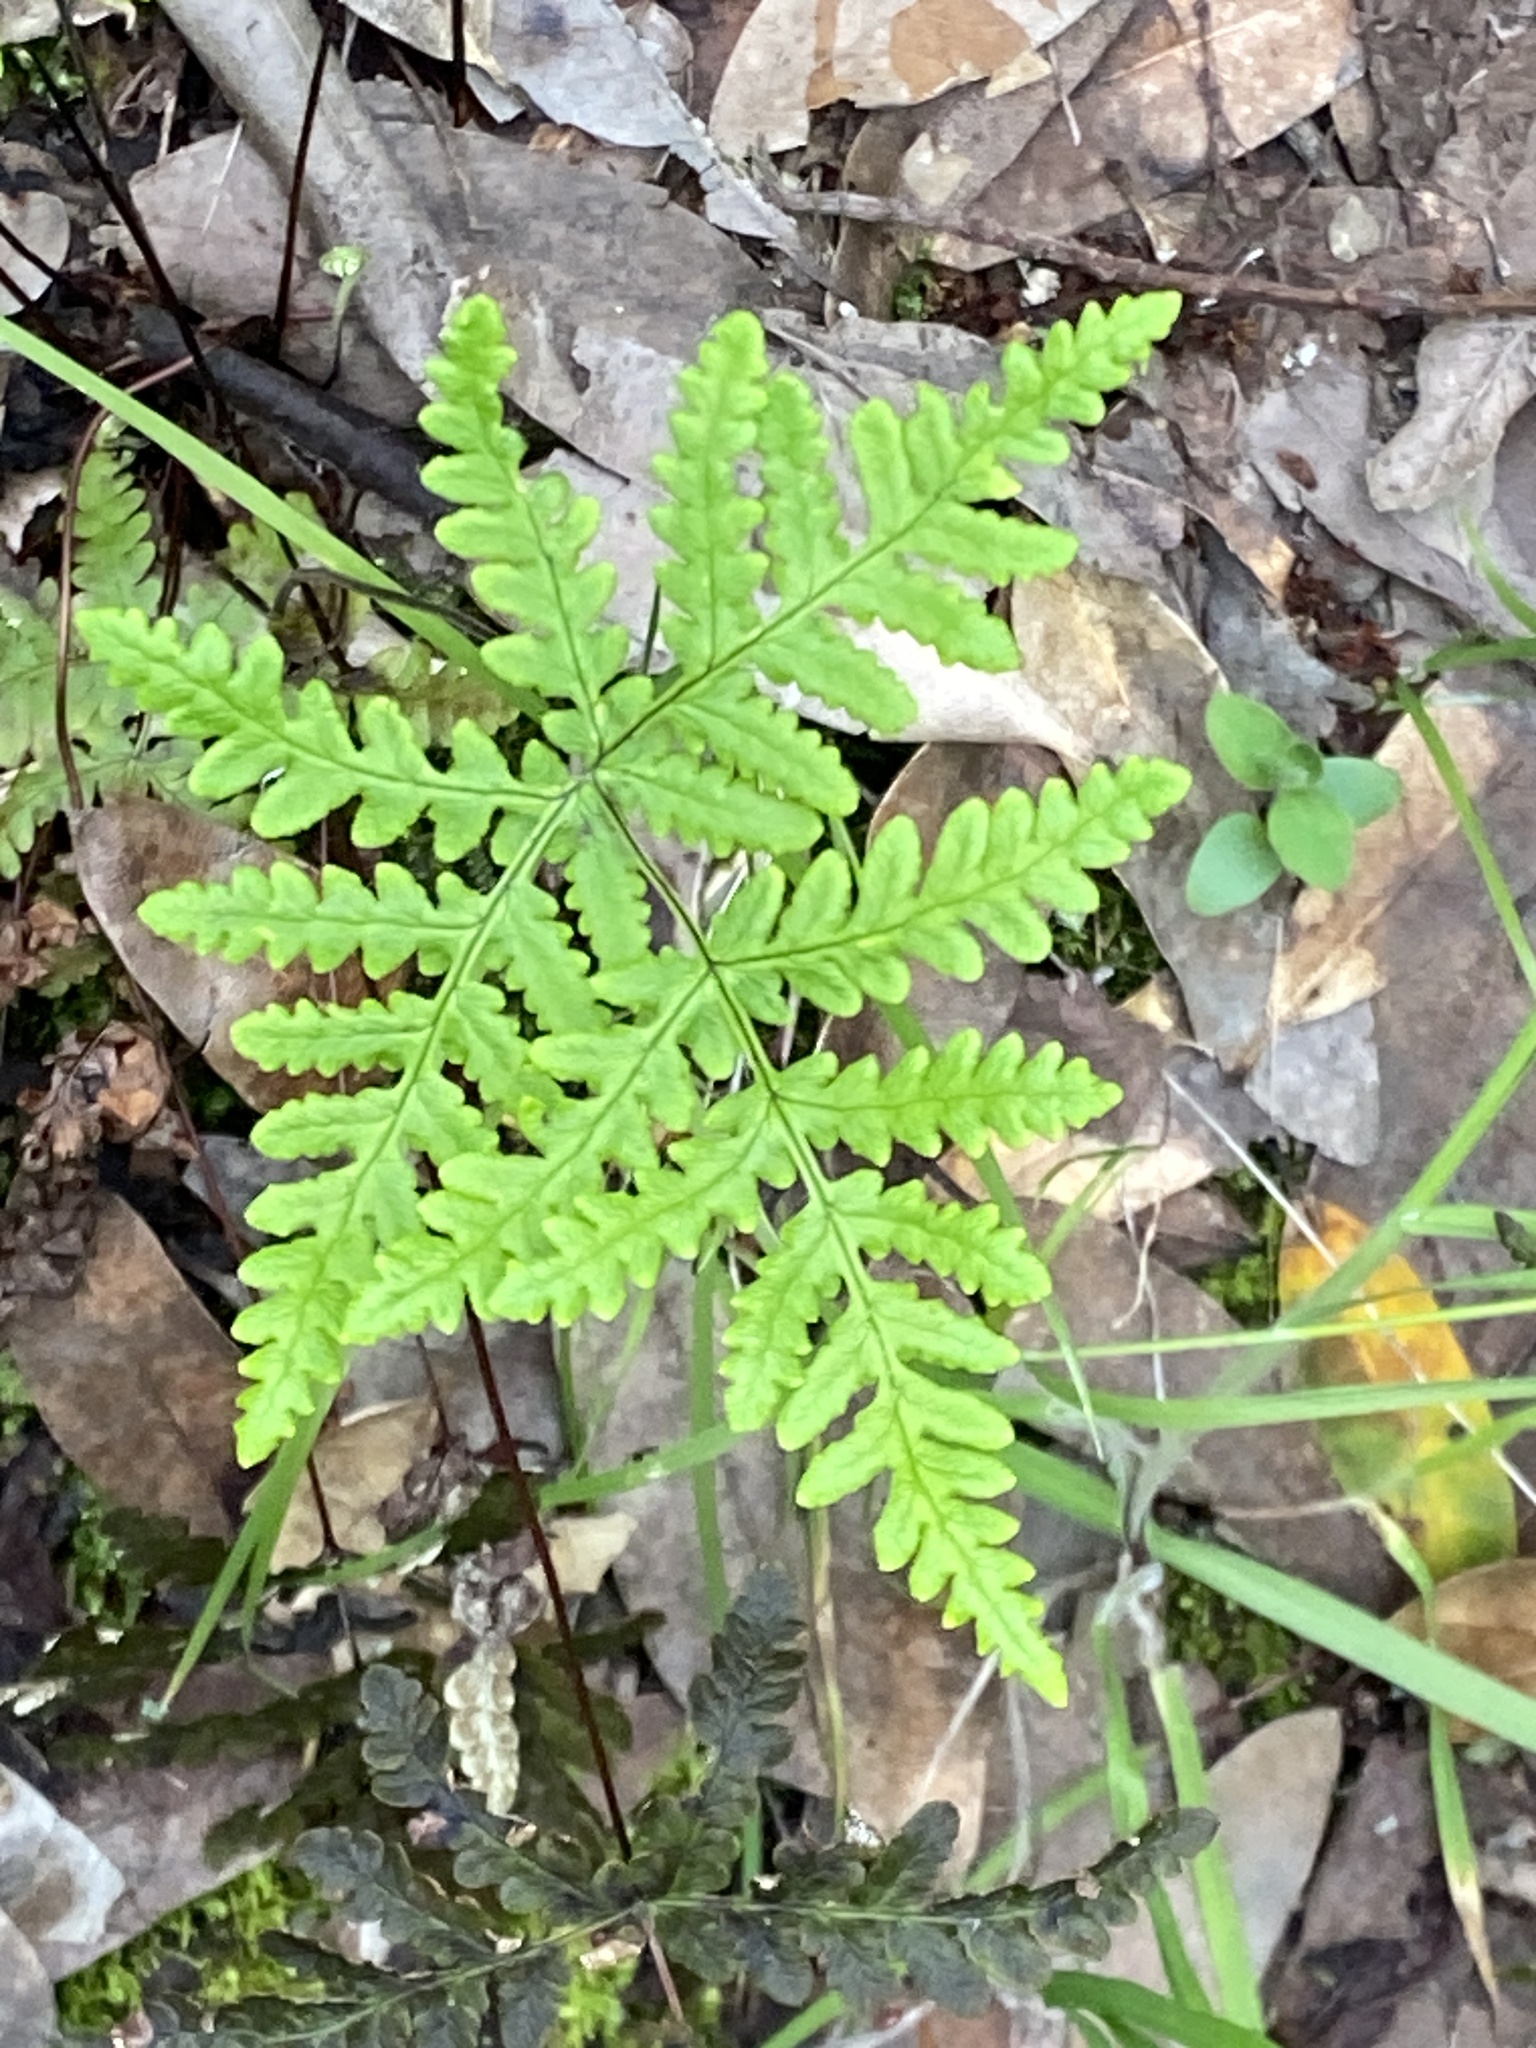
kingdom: Plantae
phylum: Tracheophyta
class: Polypodiopsida
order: Polypodiales
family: Pteridaceae
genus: Pentagramma
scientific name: Pentagramma triangularis
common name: Gold fern
